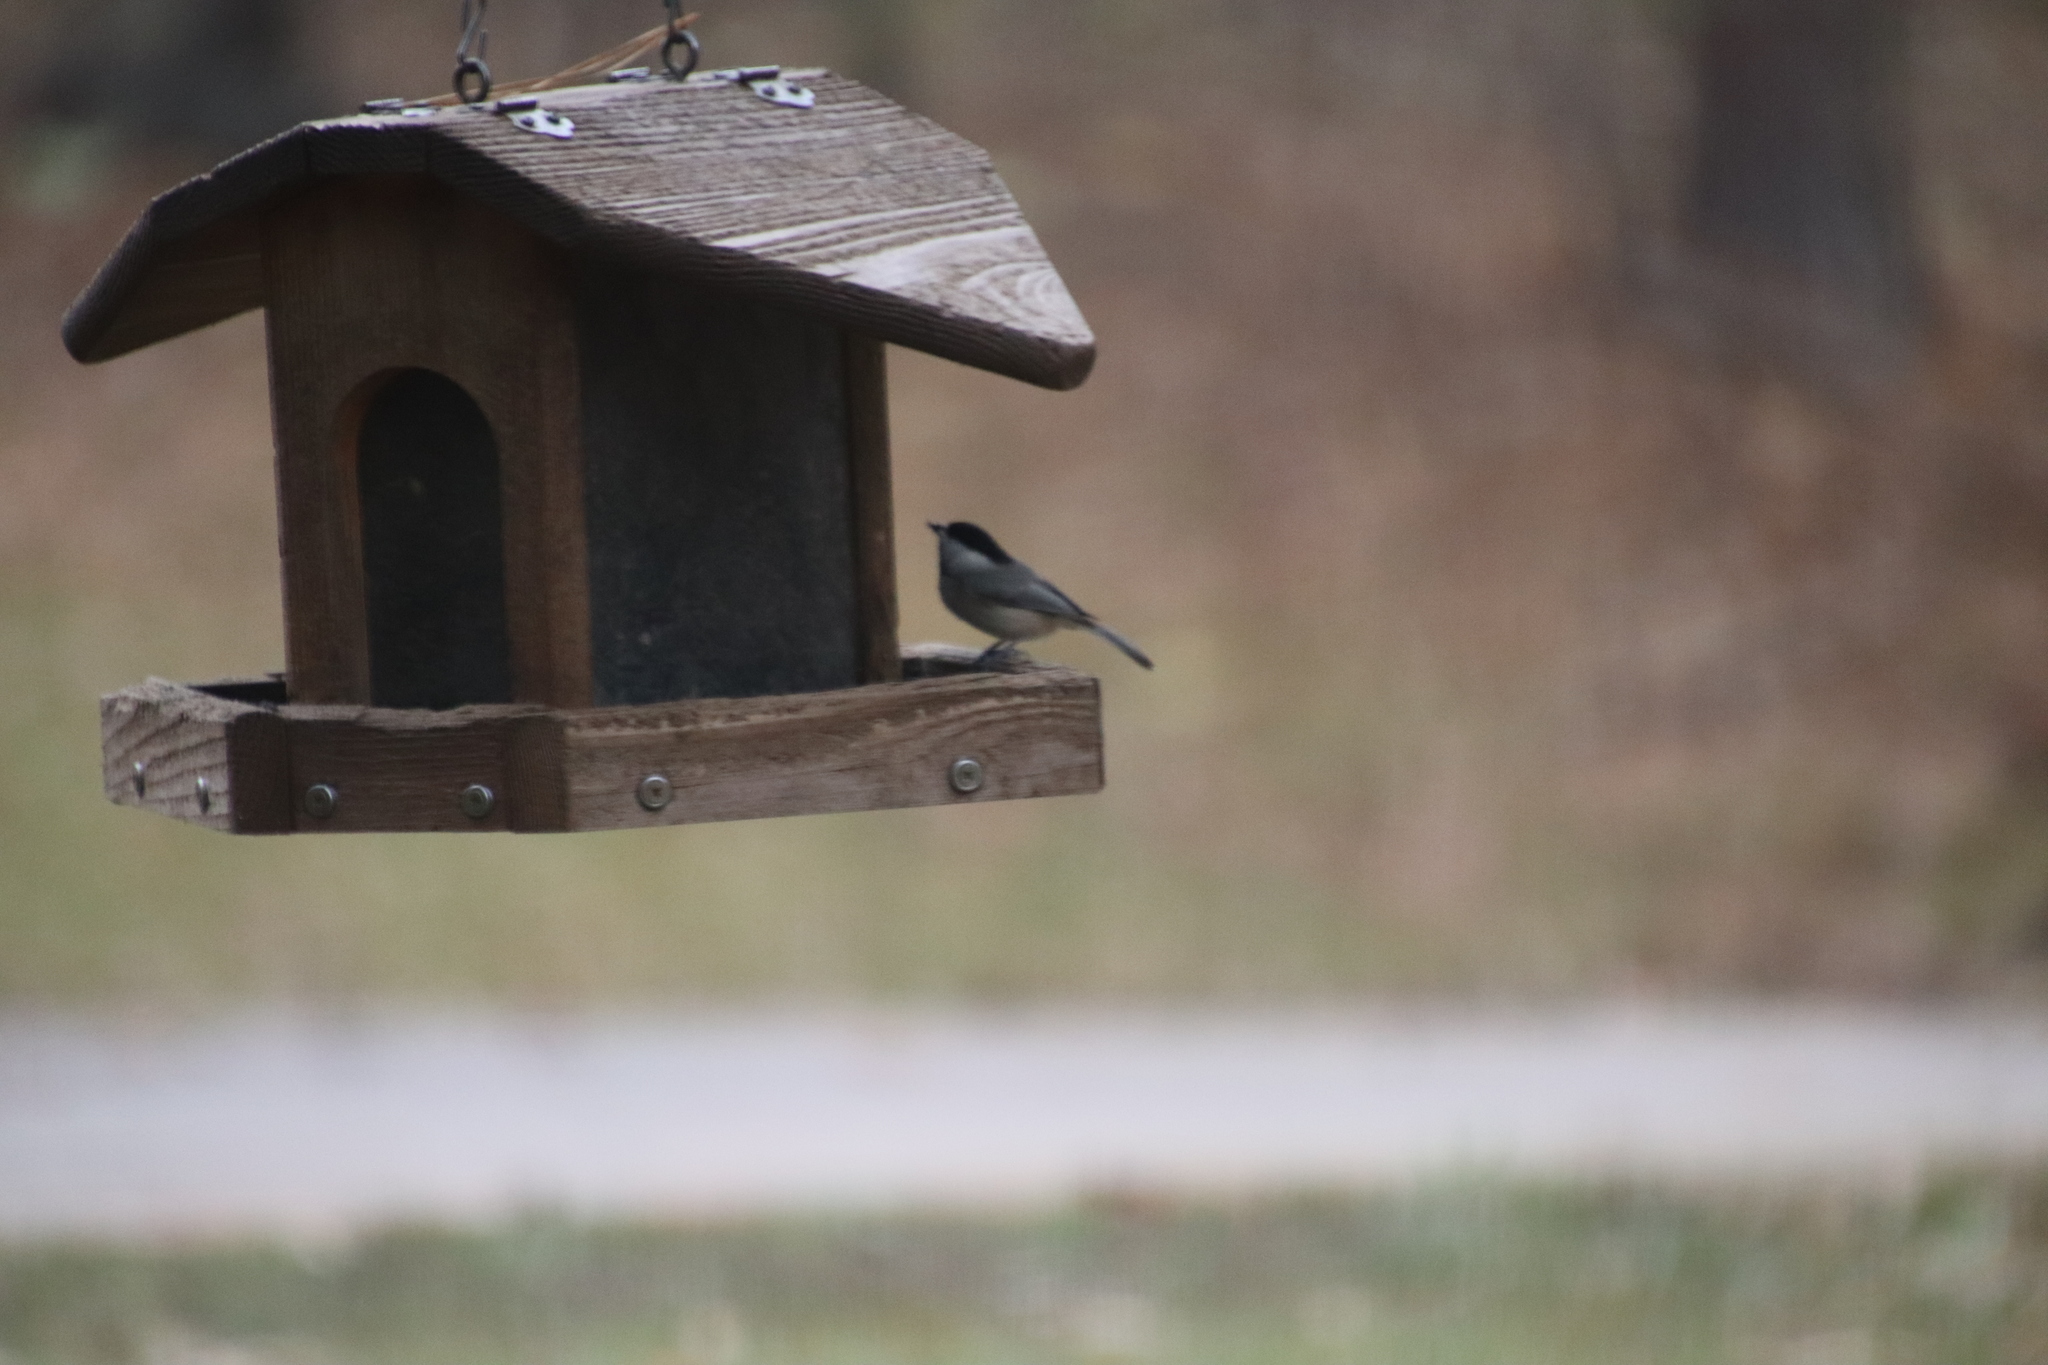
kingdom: Animalia
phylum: Chordata
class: Aves
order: Passeriformes
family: Paridae
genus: Poecile
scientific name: Poecile carolinensis
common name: Carolina chickadee
